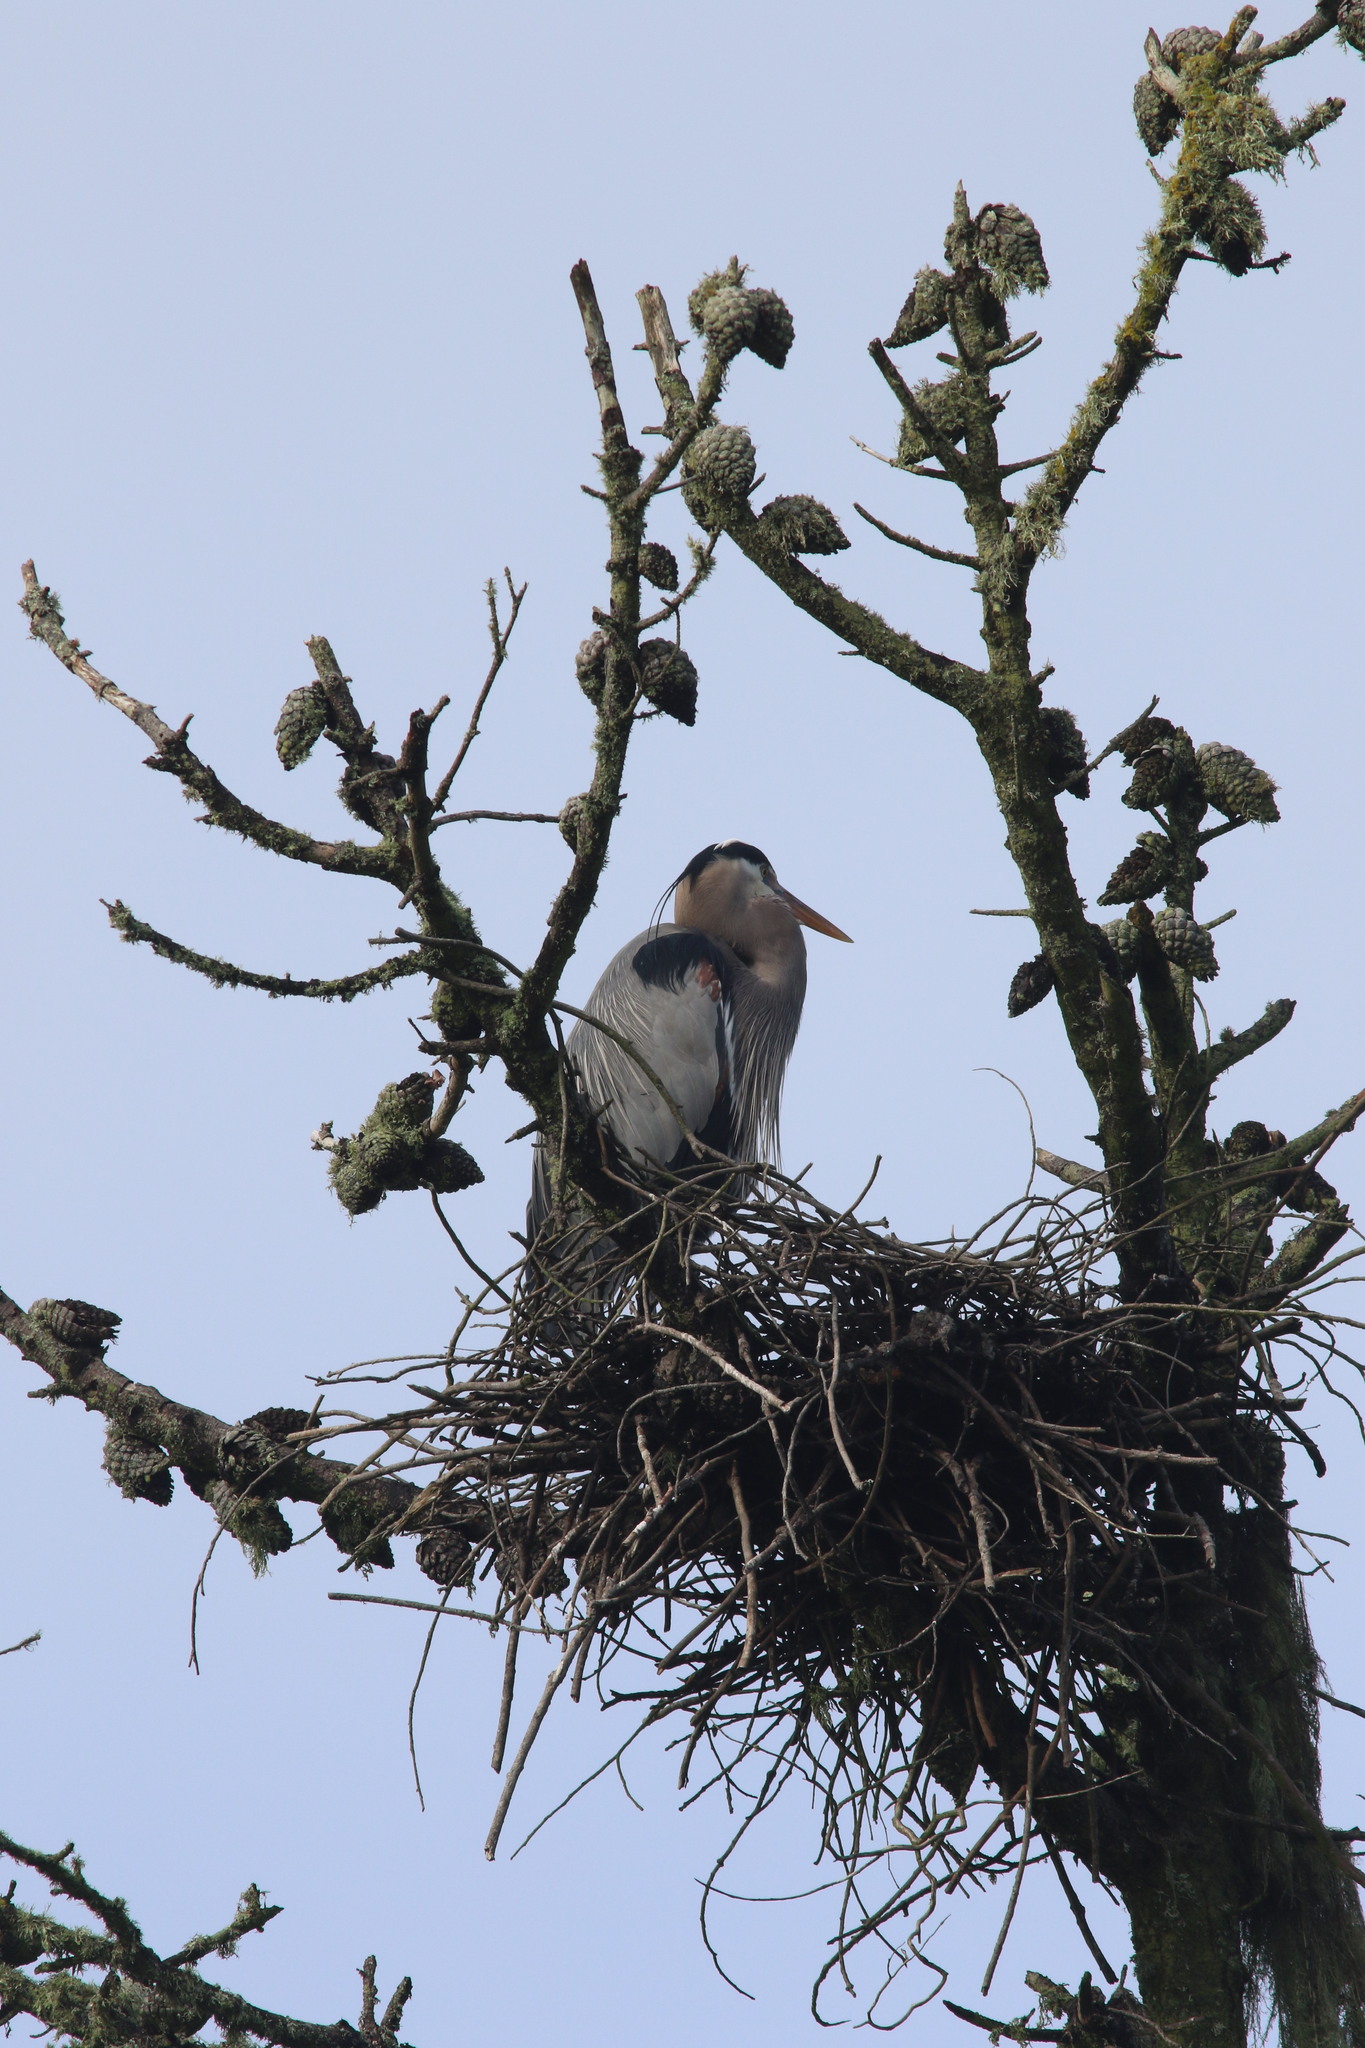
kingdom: Animalia
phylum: Chordata
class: Aves
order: Pelecaniformes
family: Ardeidae
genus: Ardea
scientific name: Ardea herodias
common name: Great blue heron
